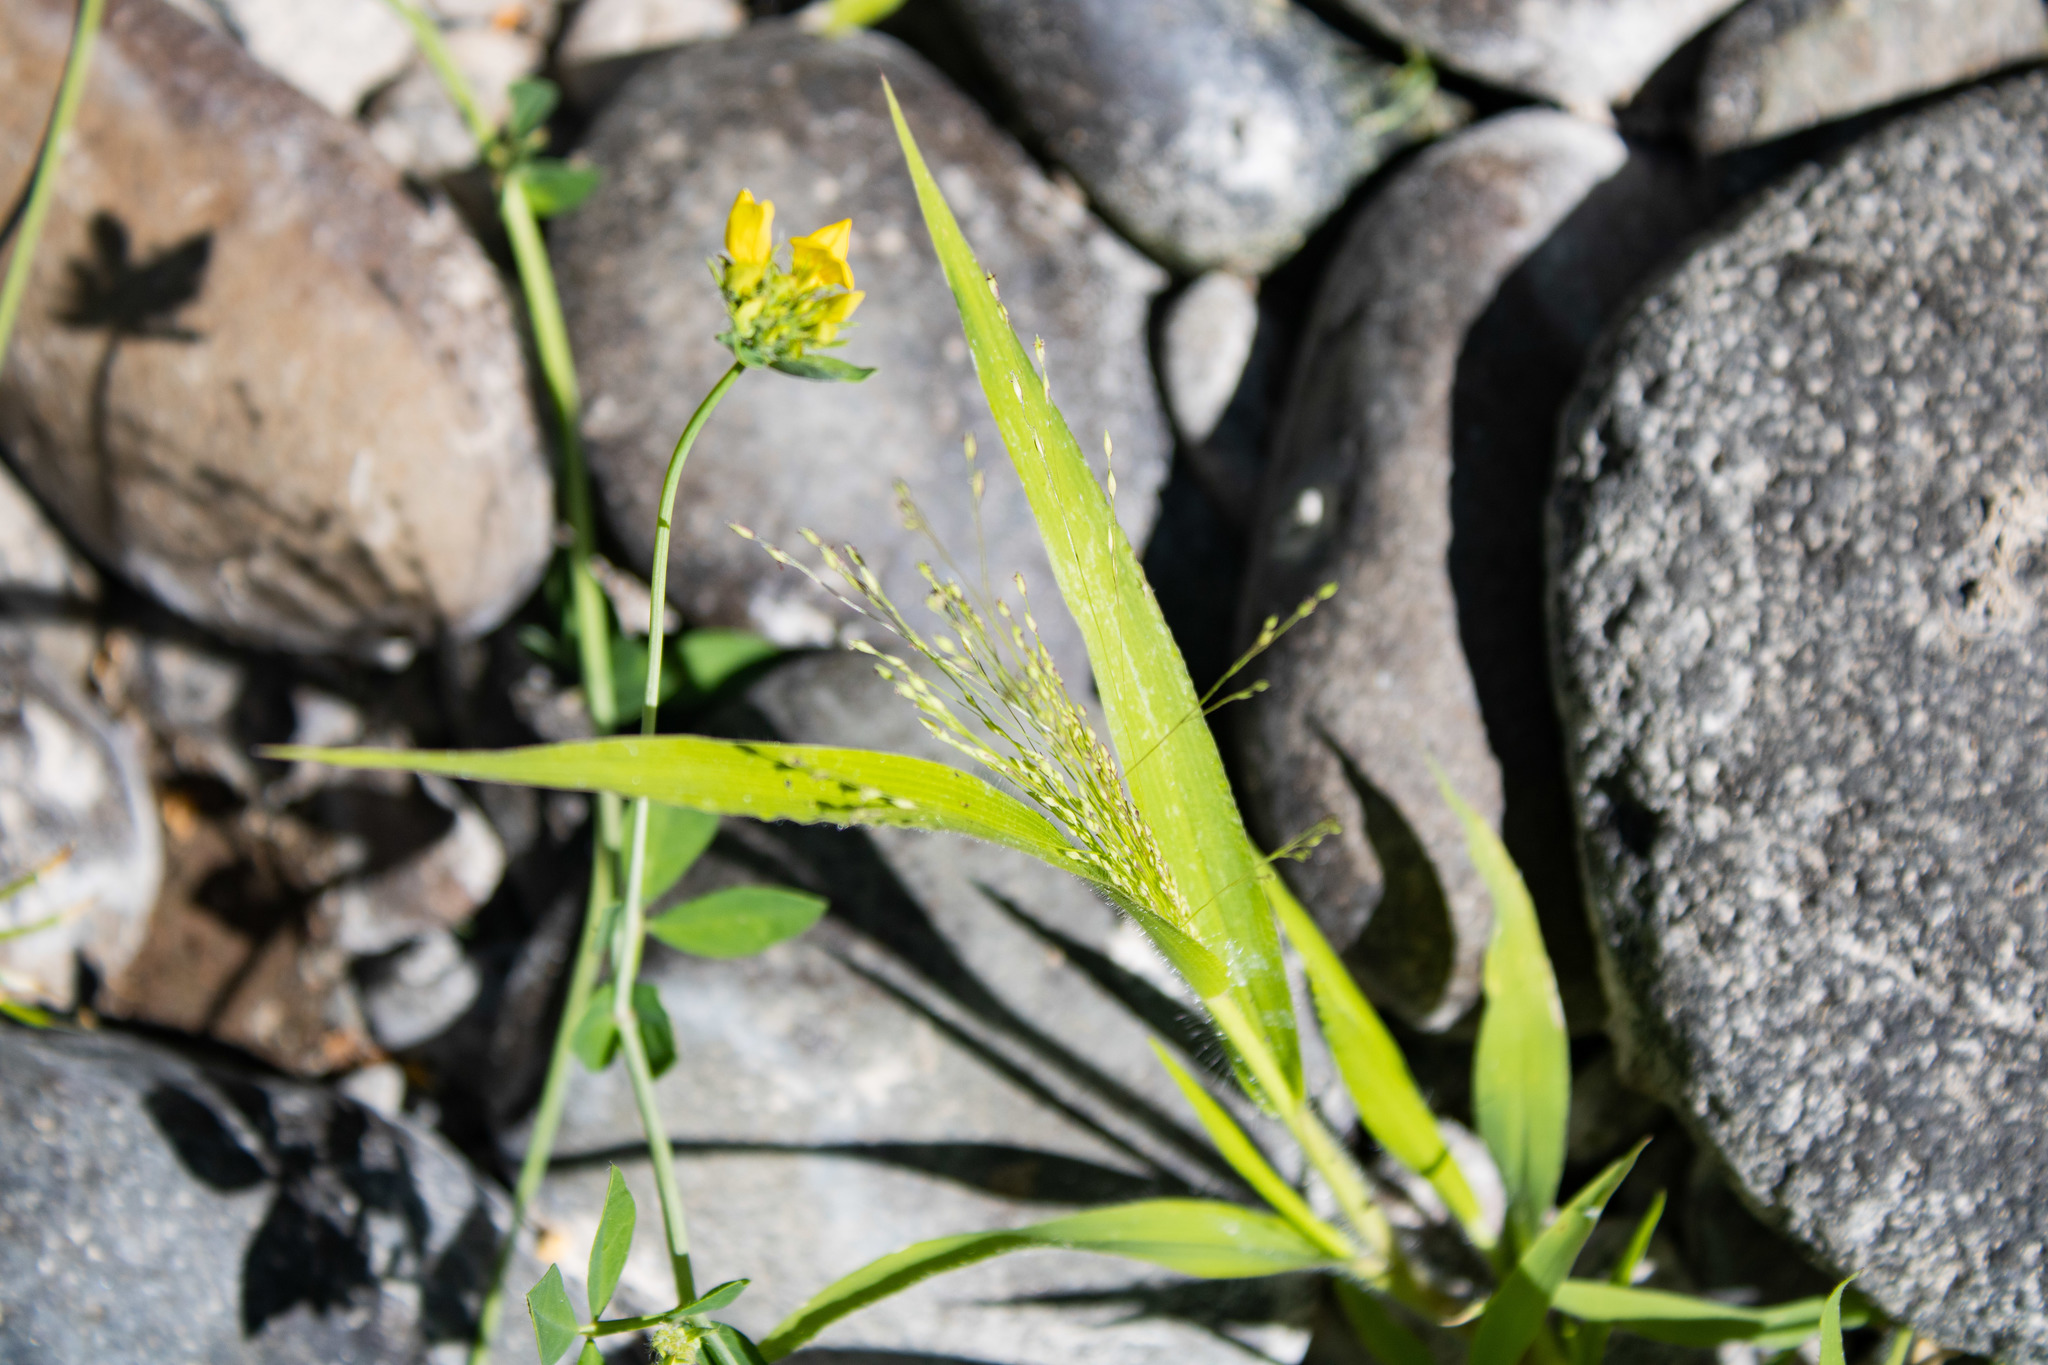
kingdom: Plantae
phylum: Tracheophyta
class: Liliopsida
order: Poales
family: Poaceae
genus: Panicum
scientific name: Panicum capillare
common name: Witch-grass
